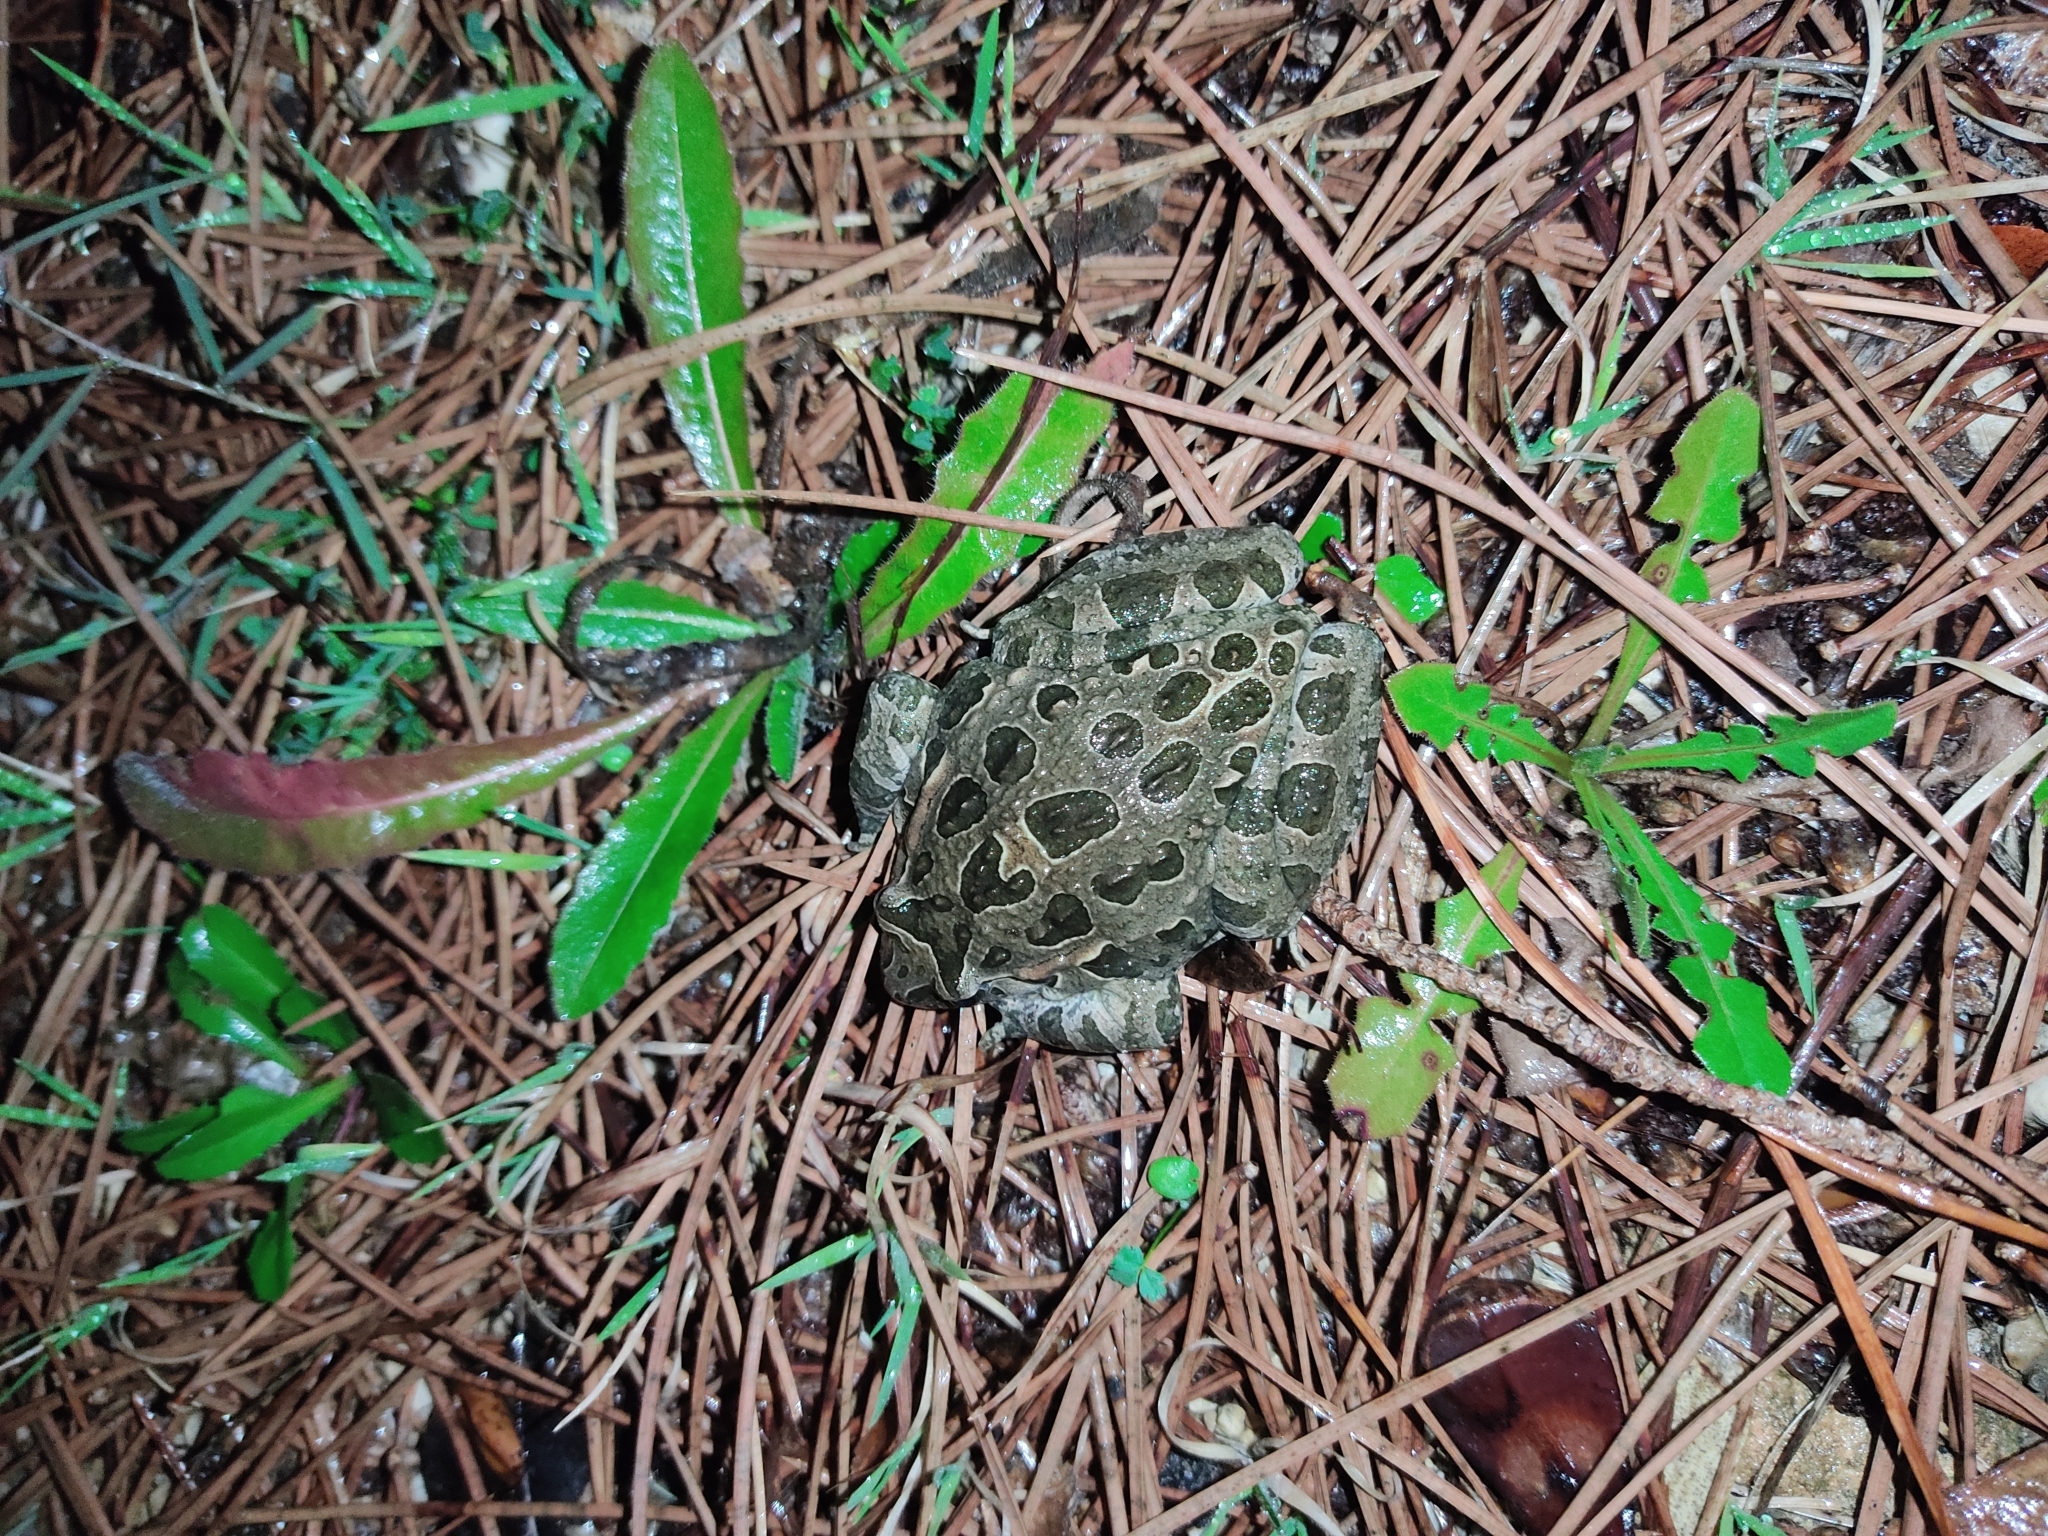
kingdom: Animalia
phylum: Chordata
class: Amphibia
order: Anura
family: Alytidae
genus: Discoglossus
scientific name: Discoglossus pictus
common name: Painted frog
